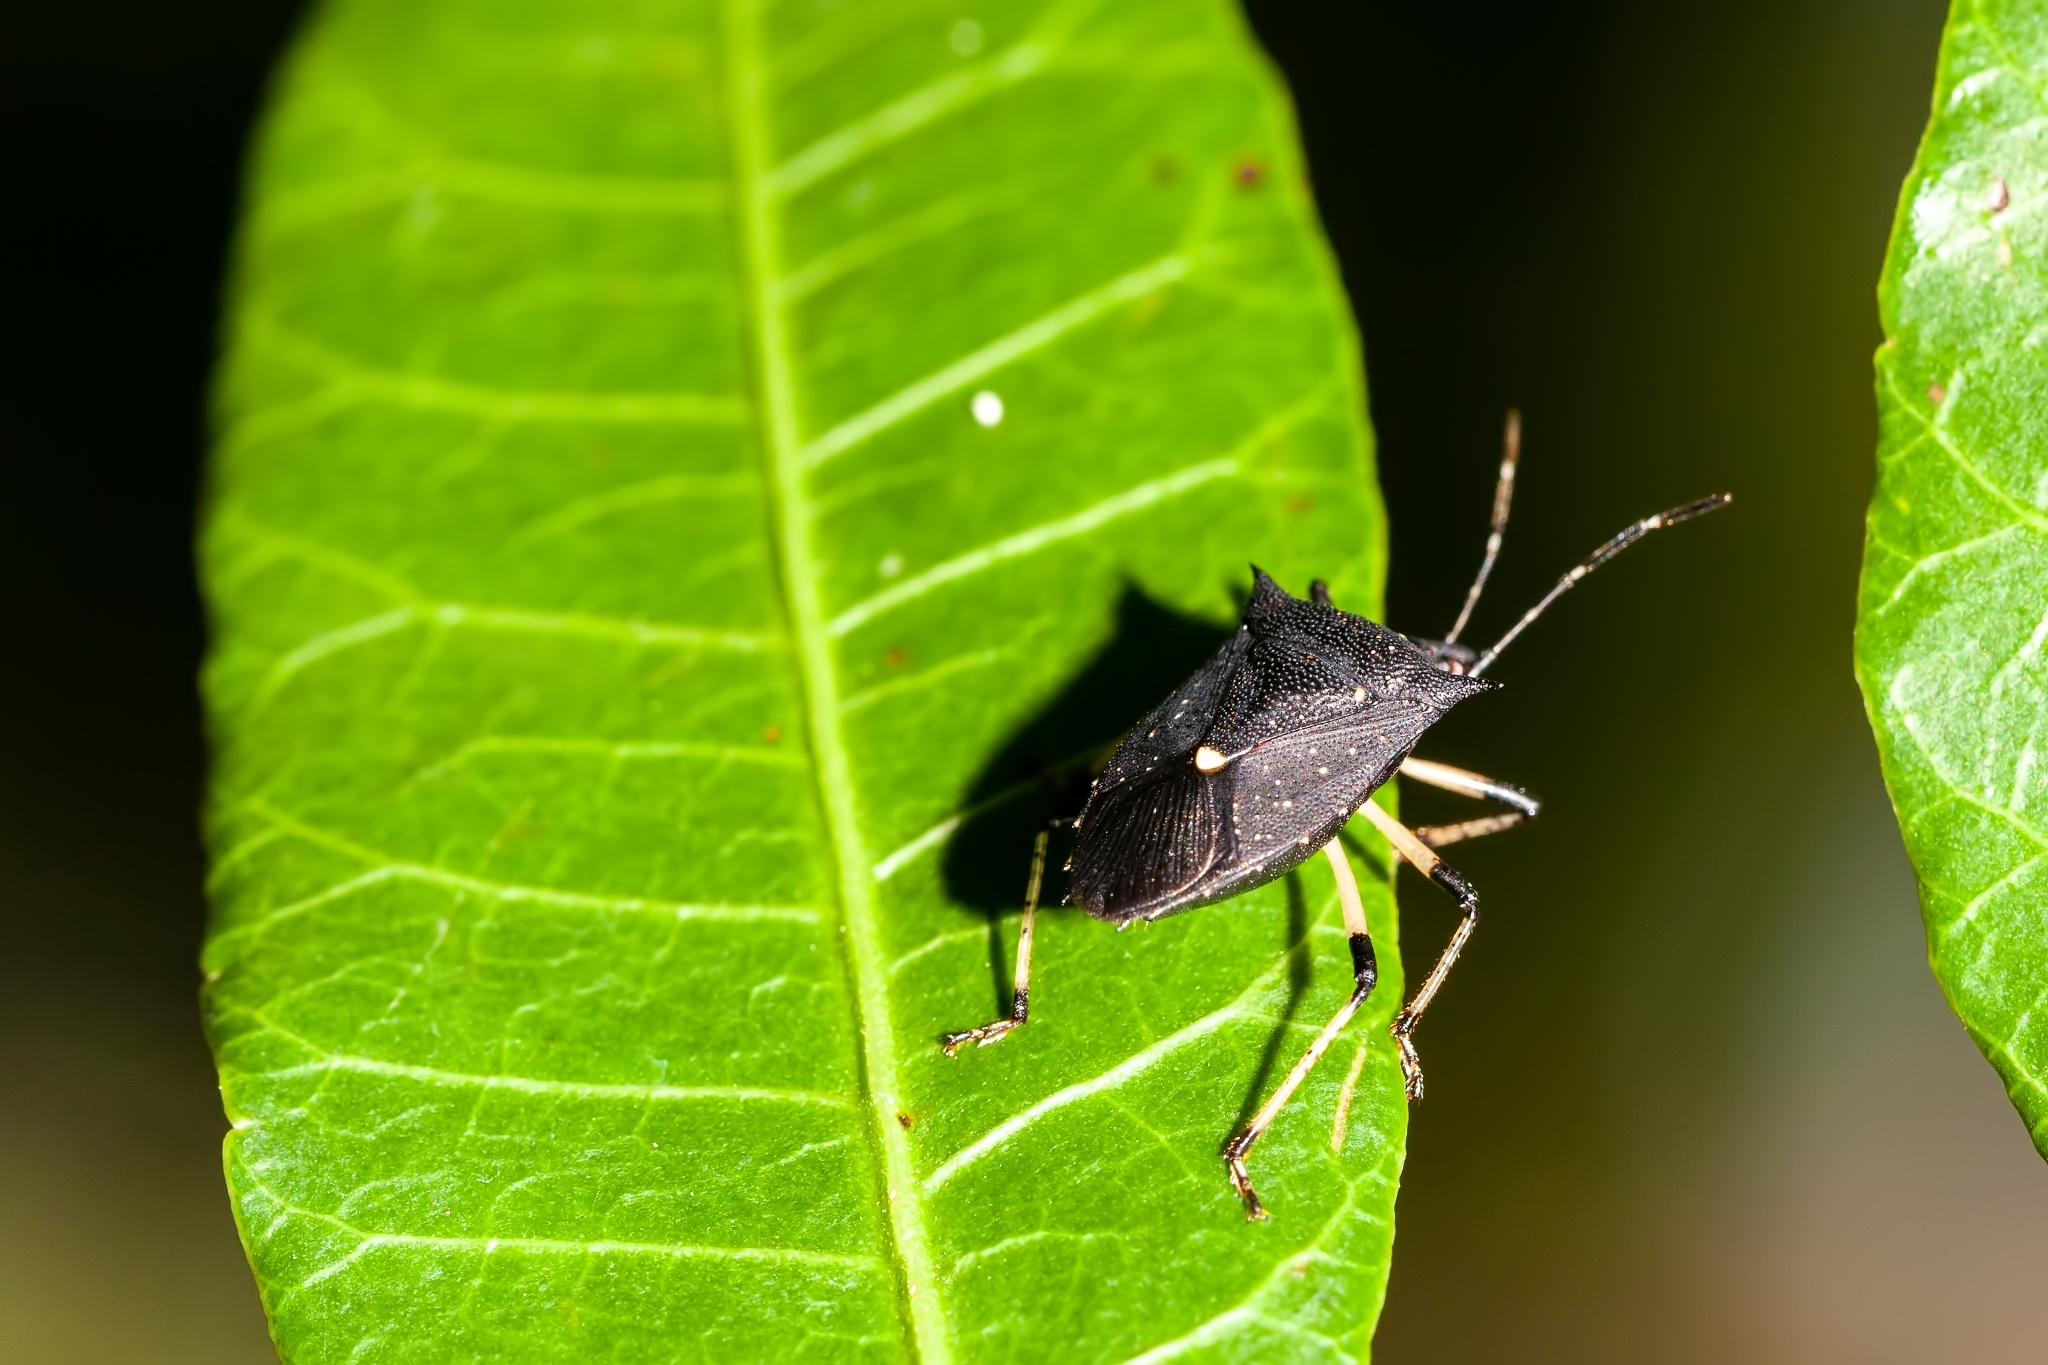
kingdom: Animalia
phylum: Arthropoda
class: Insecta
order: Hemiptera
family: Pentatomidae
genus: Proxys
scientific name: Proxys punctulatus
